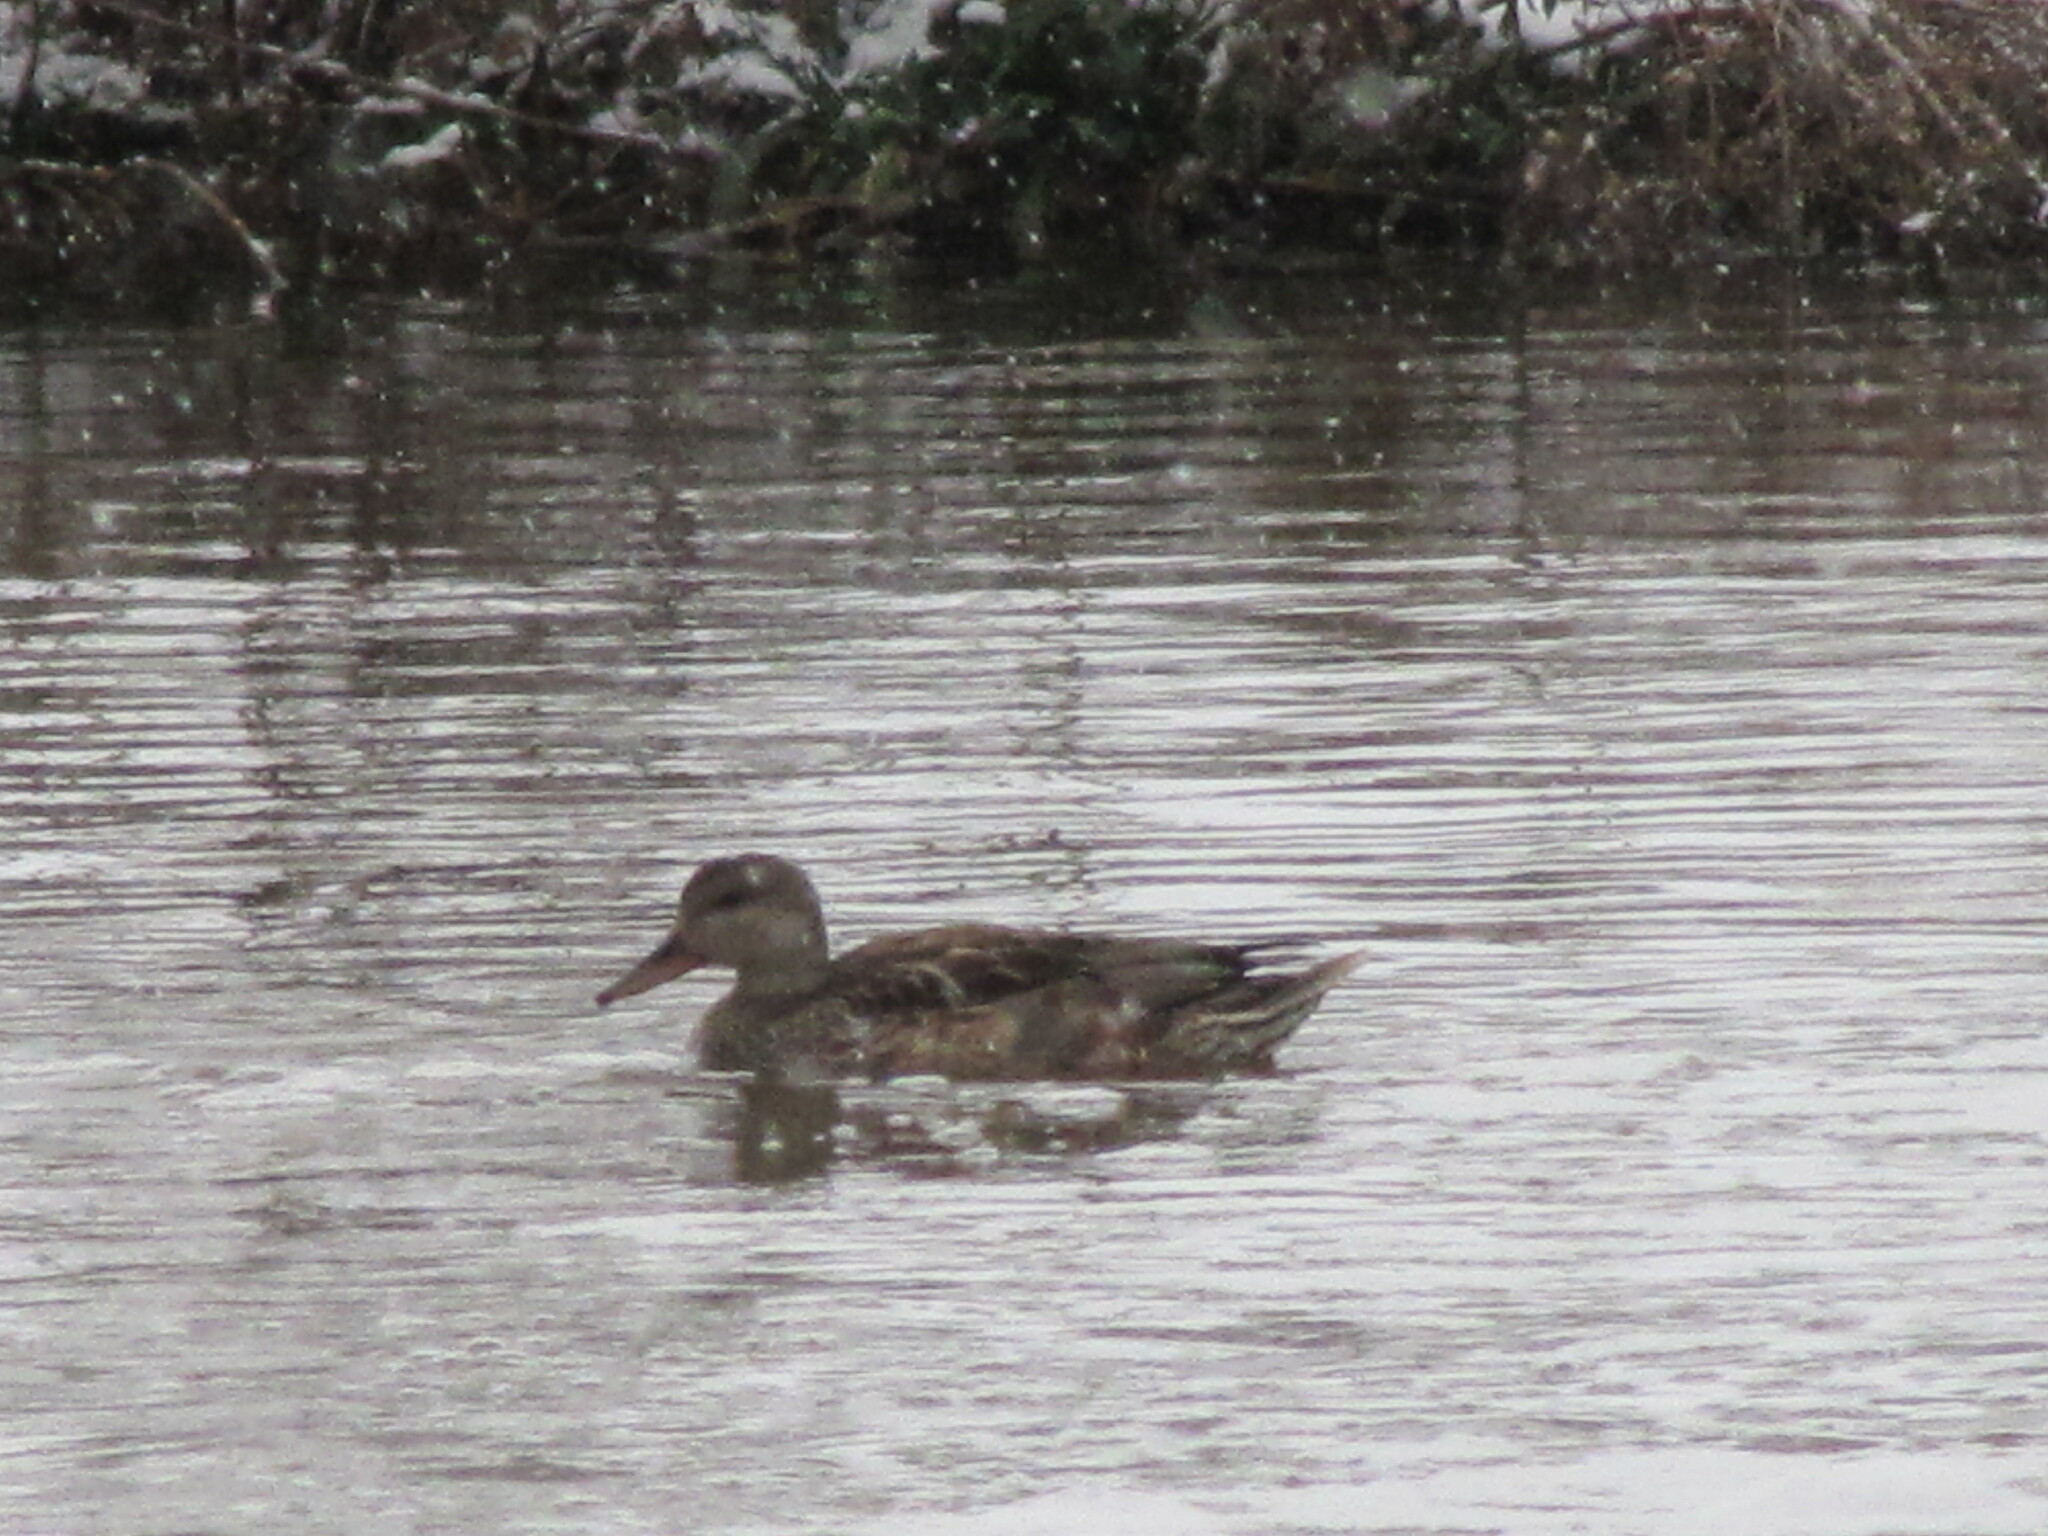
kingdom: Animalia
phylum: Chordata
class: Aves
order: Anseriformes
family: Anatidae
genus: Mareca
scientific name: Mareca strepera
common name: Gadwall
